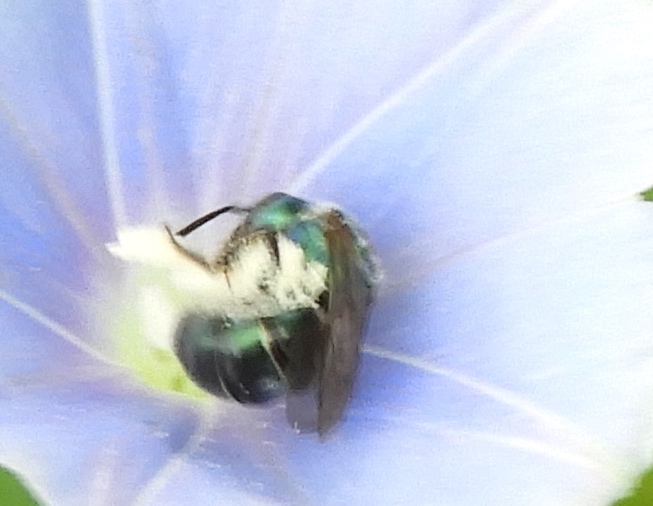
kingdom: Animalia
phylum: Arthropoda
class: Insecta
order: Hymenoptera
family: Halictidae
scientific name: Halictidae
